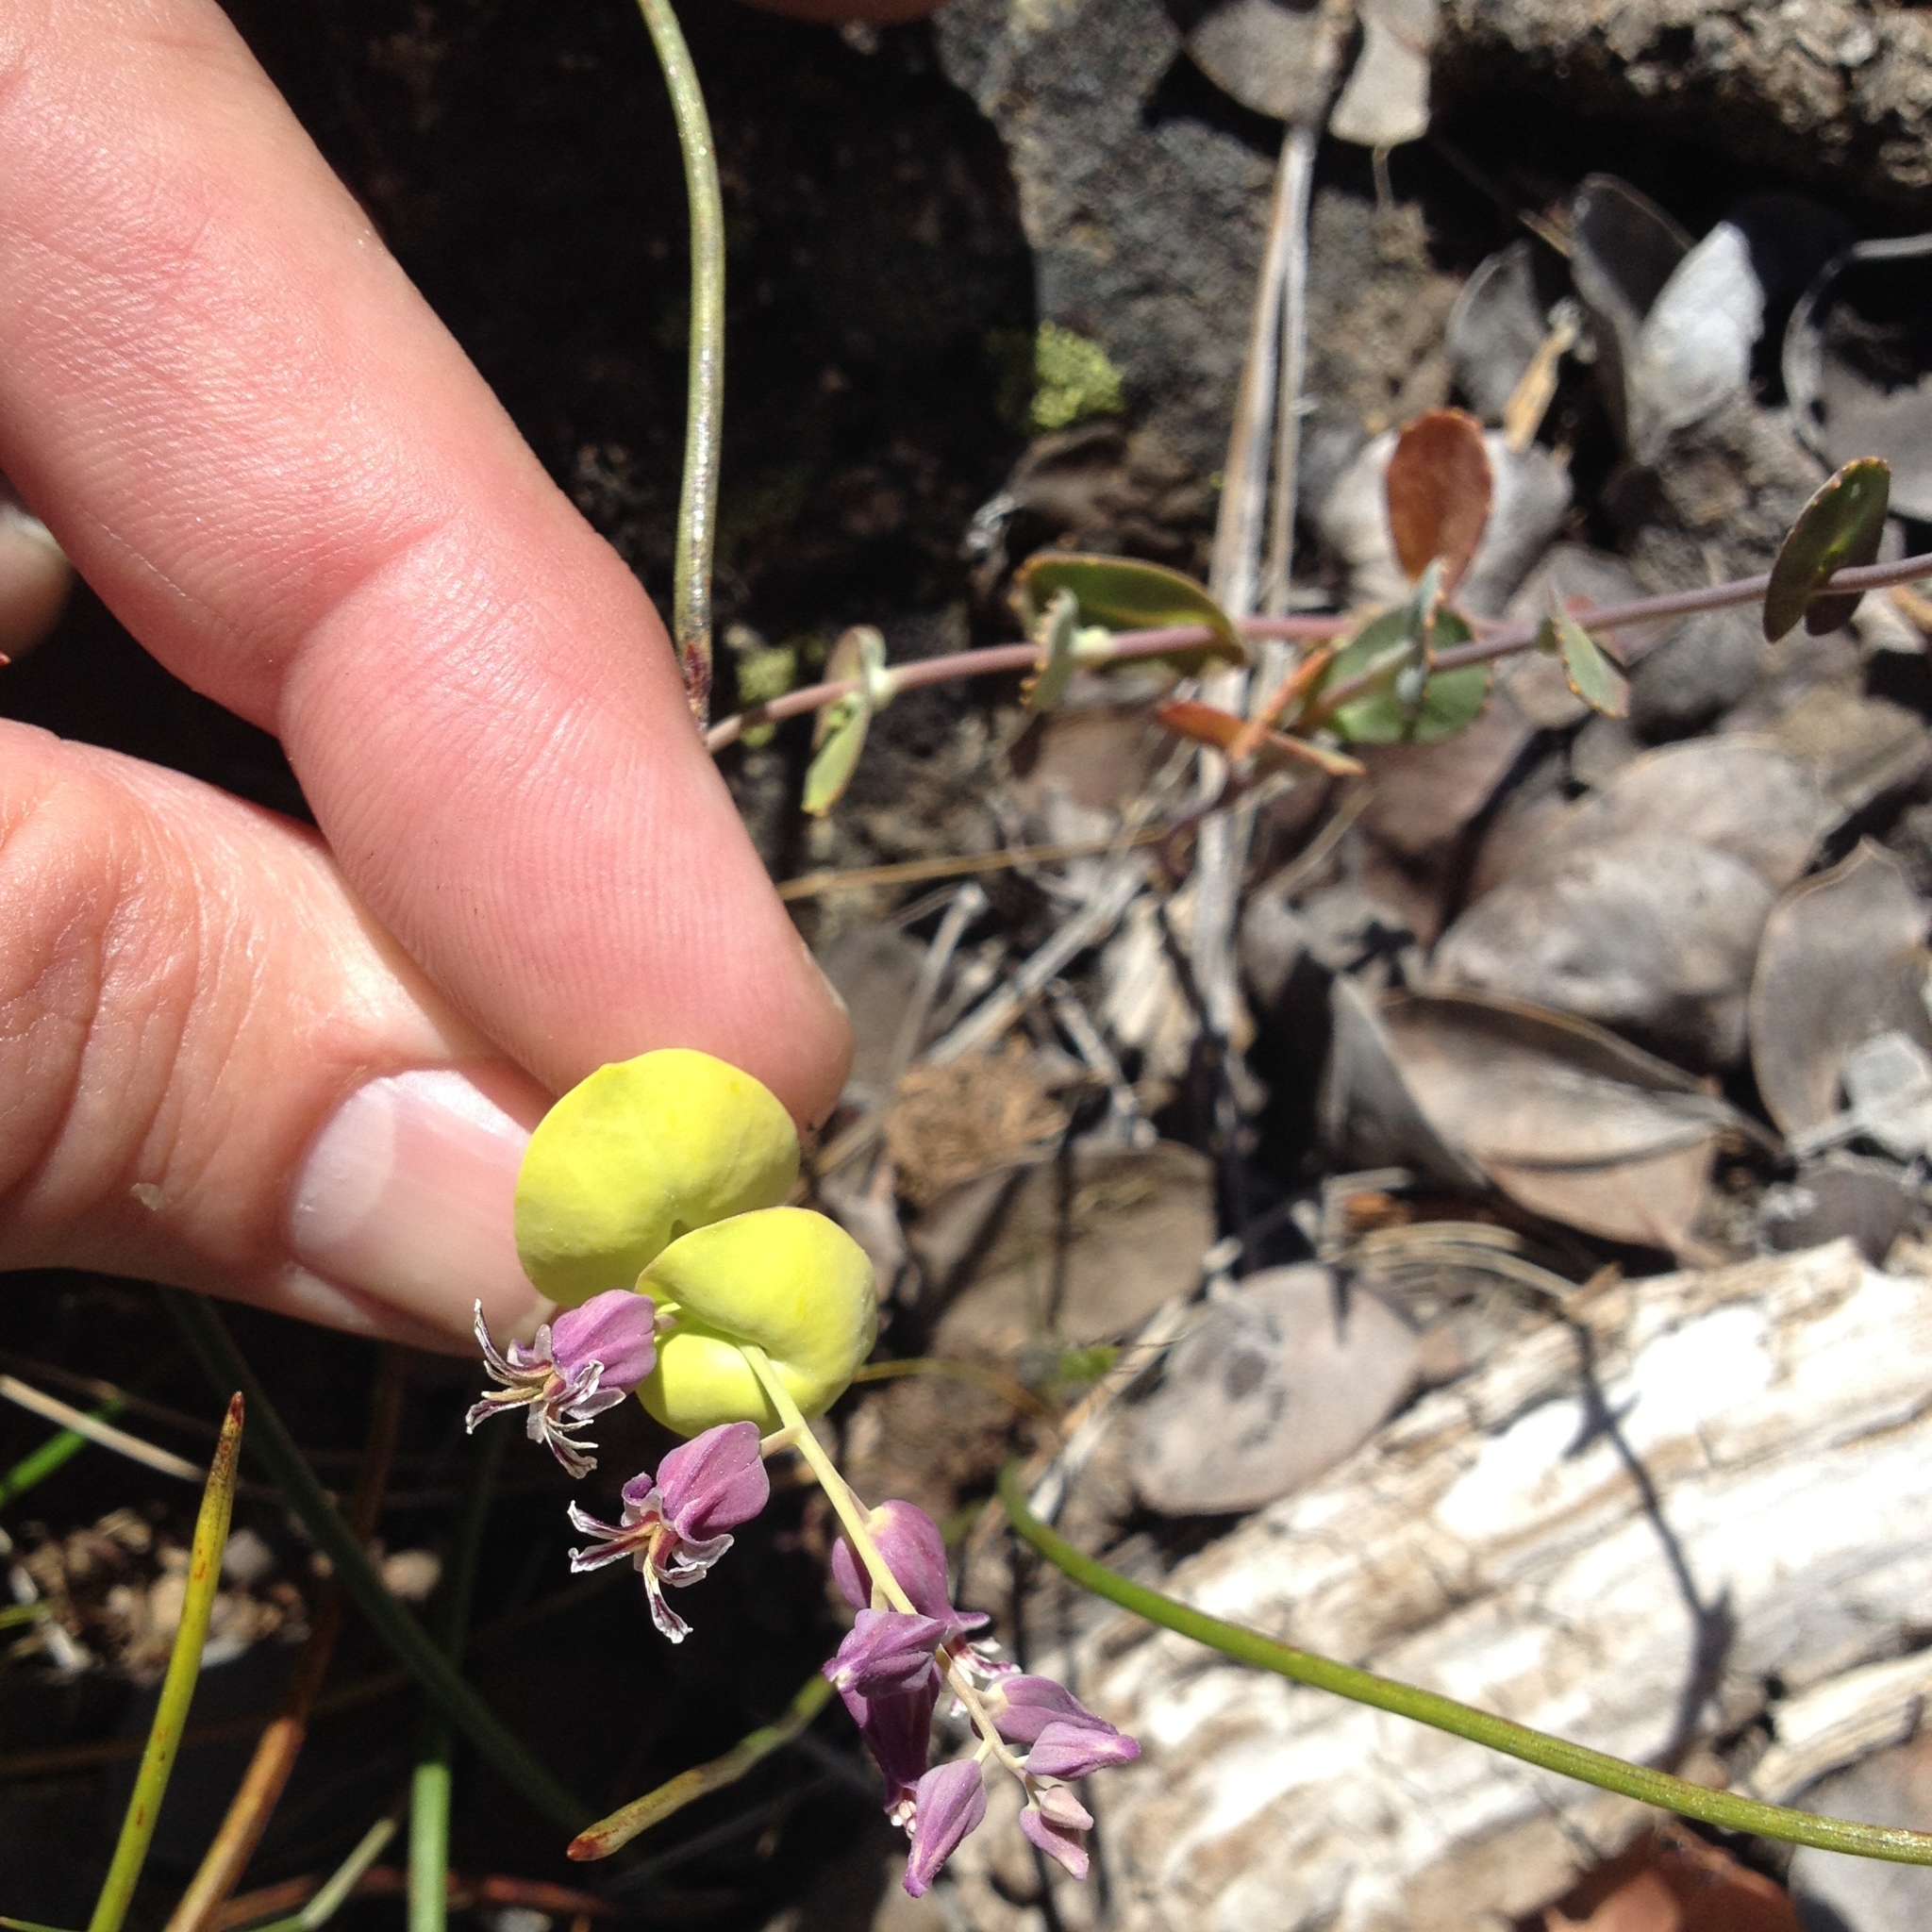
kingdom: Plantae
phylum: Tracheophyta
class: Magnoliopsida
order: Brassicales
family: Brassicaceae
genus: Streptanthus
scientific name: Streptanthus tortuosus
